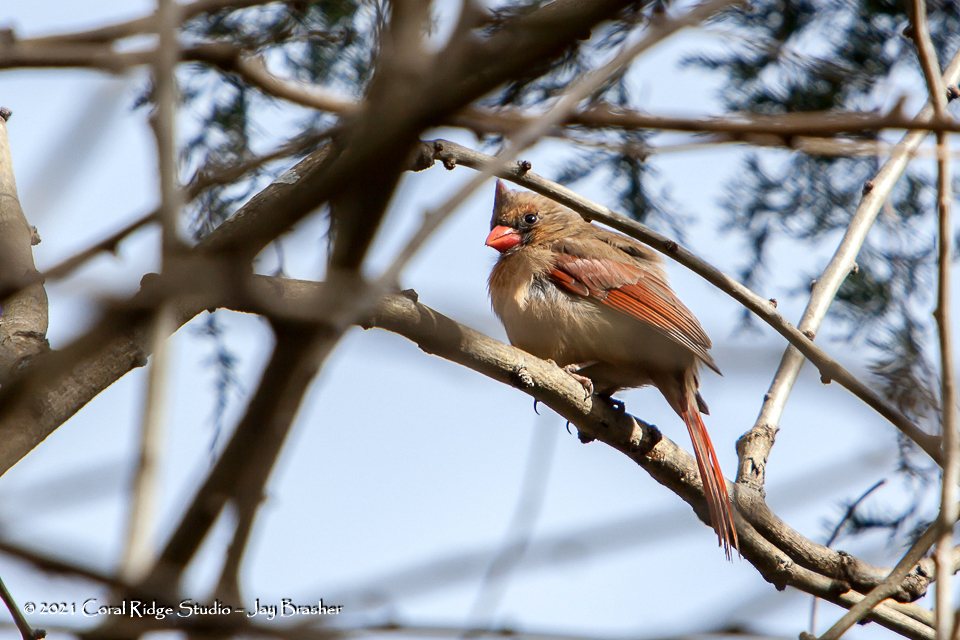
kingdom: Animalia
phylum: Chordata
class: Aves
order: Passeriformes
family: Cardinalidae
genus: Cardinalis
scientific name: Cardinalis cardinalis
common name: Northern cardinal
